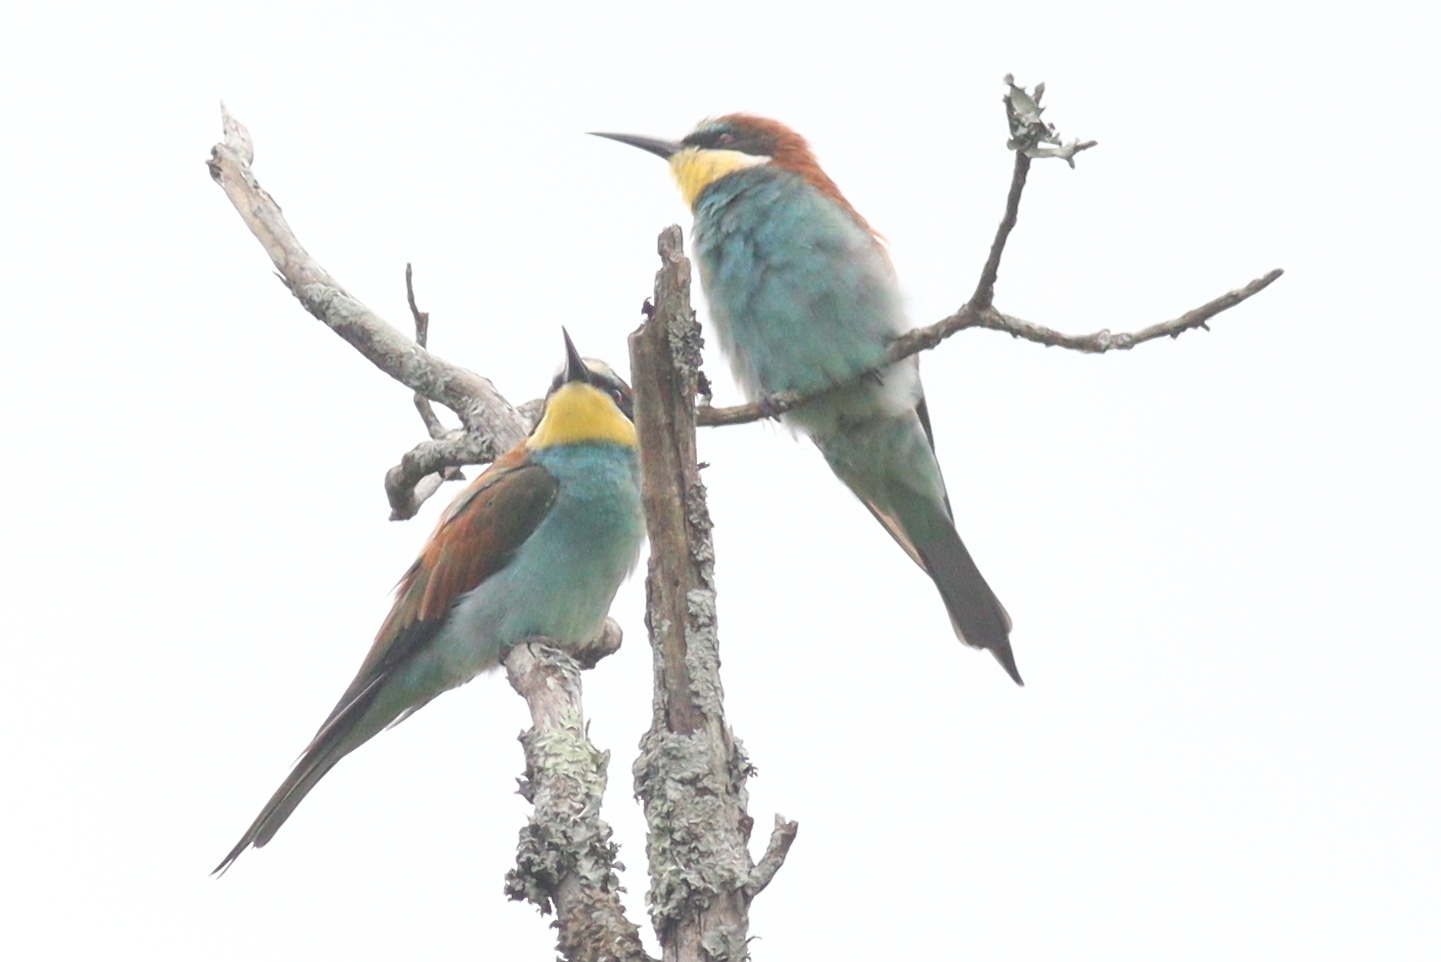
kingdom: Animalia
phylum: Chordata
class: Aves
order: Coraciiformes
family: Meropidae
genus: Merops
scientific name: Merops apiaster
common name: European bee-eater
